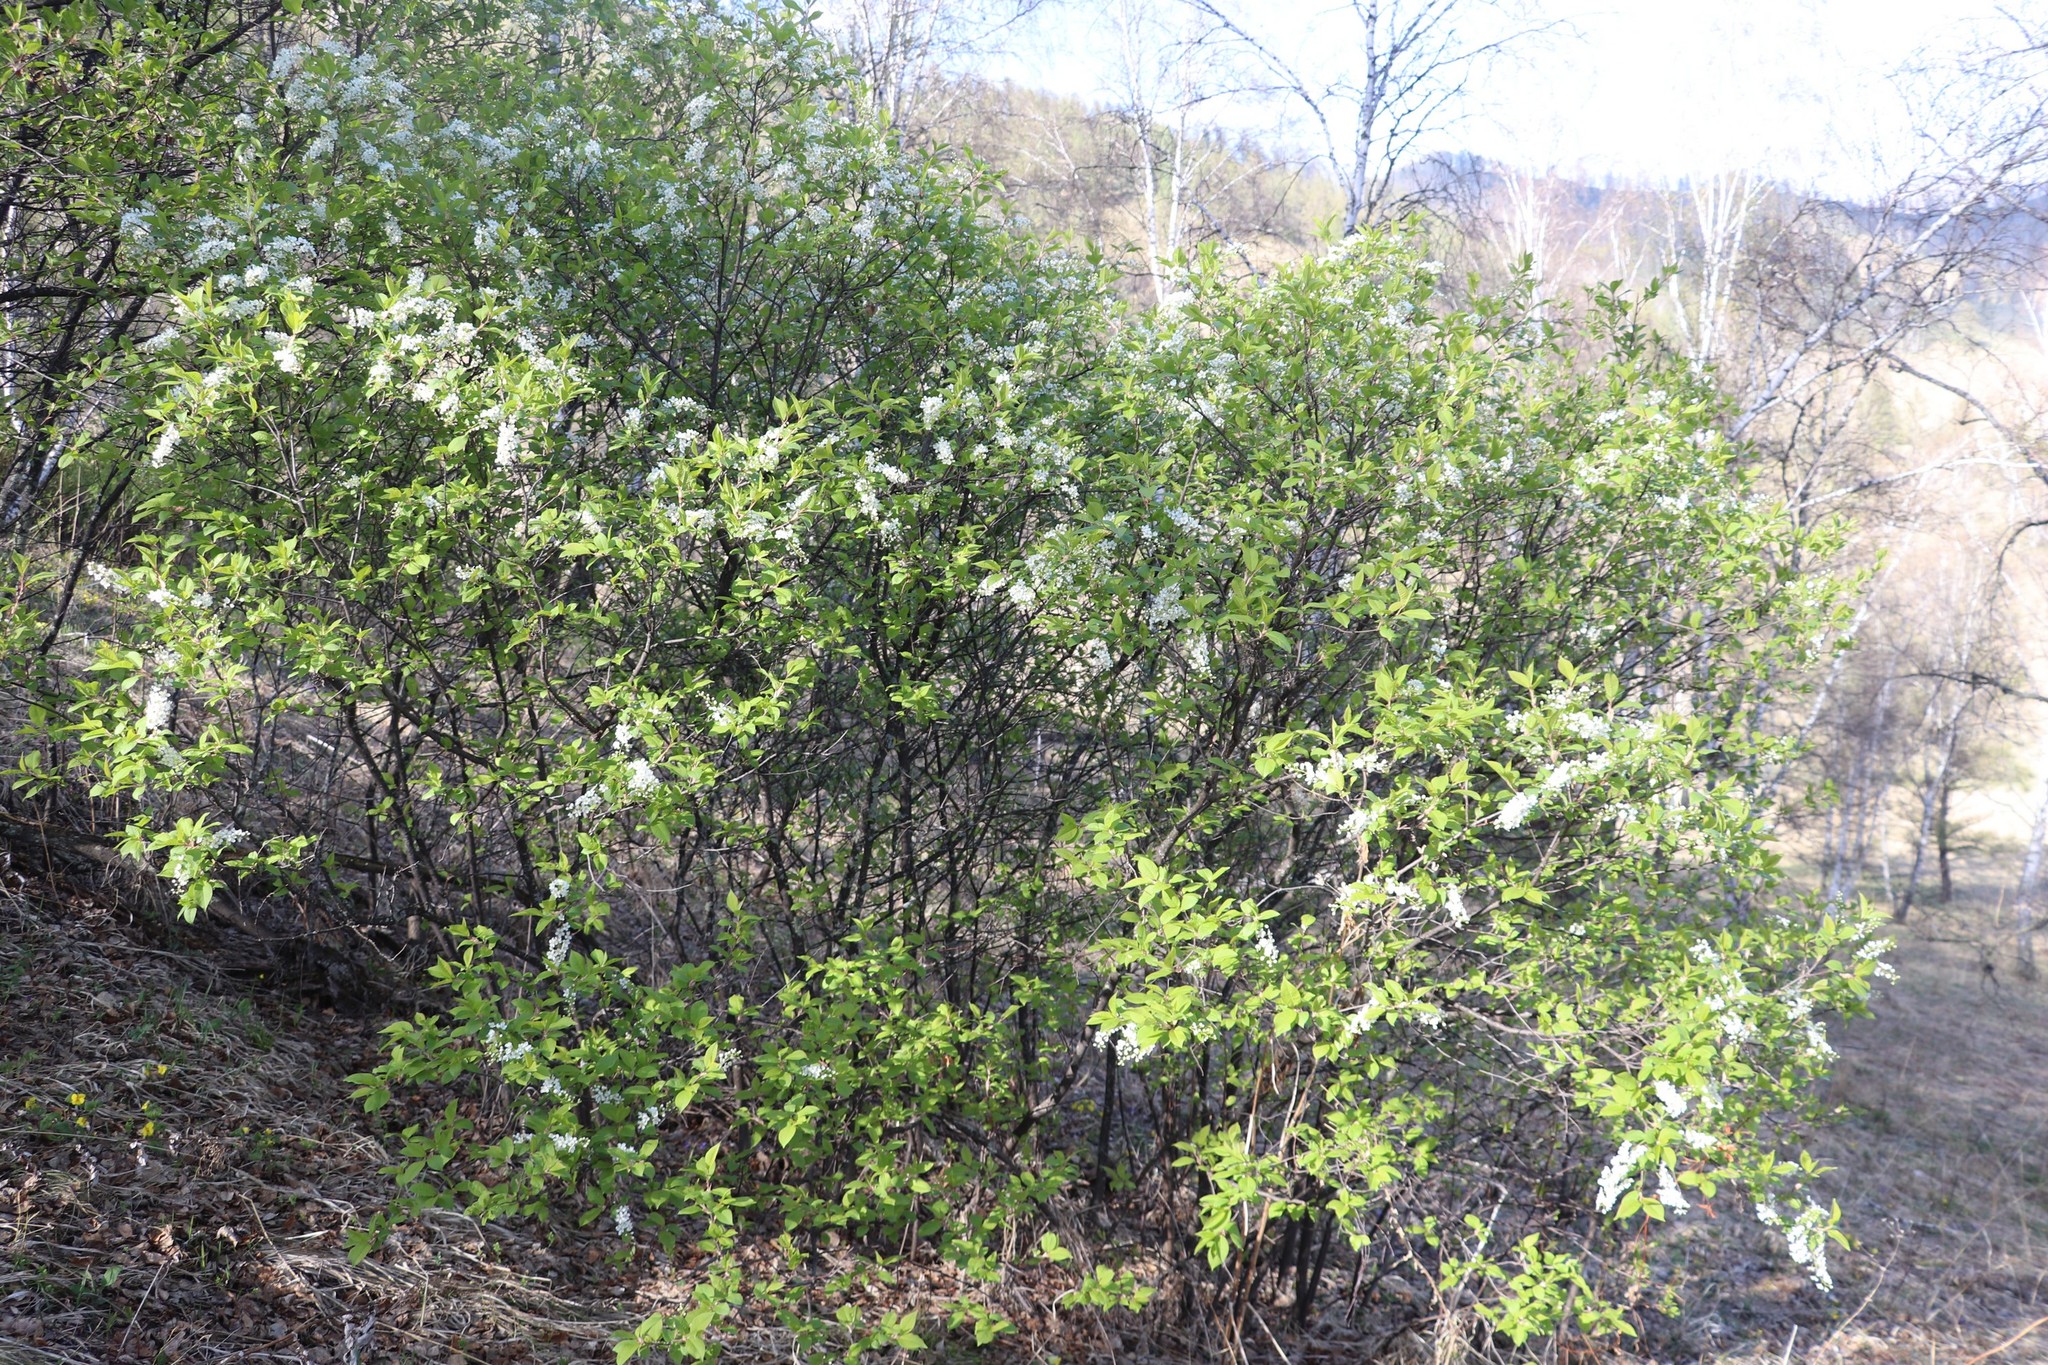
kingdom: Plantae
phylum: Tracheophyta
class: Magnoliopsida
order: Rosales
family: Rosaceae
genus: Prunus
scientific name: Prunus padus
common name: Bird cherry
